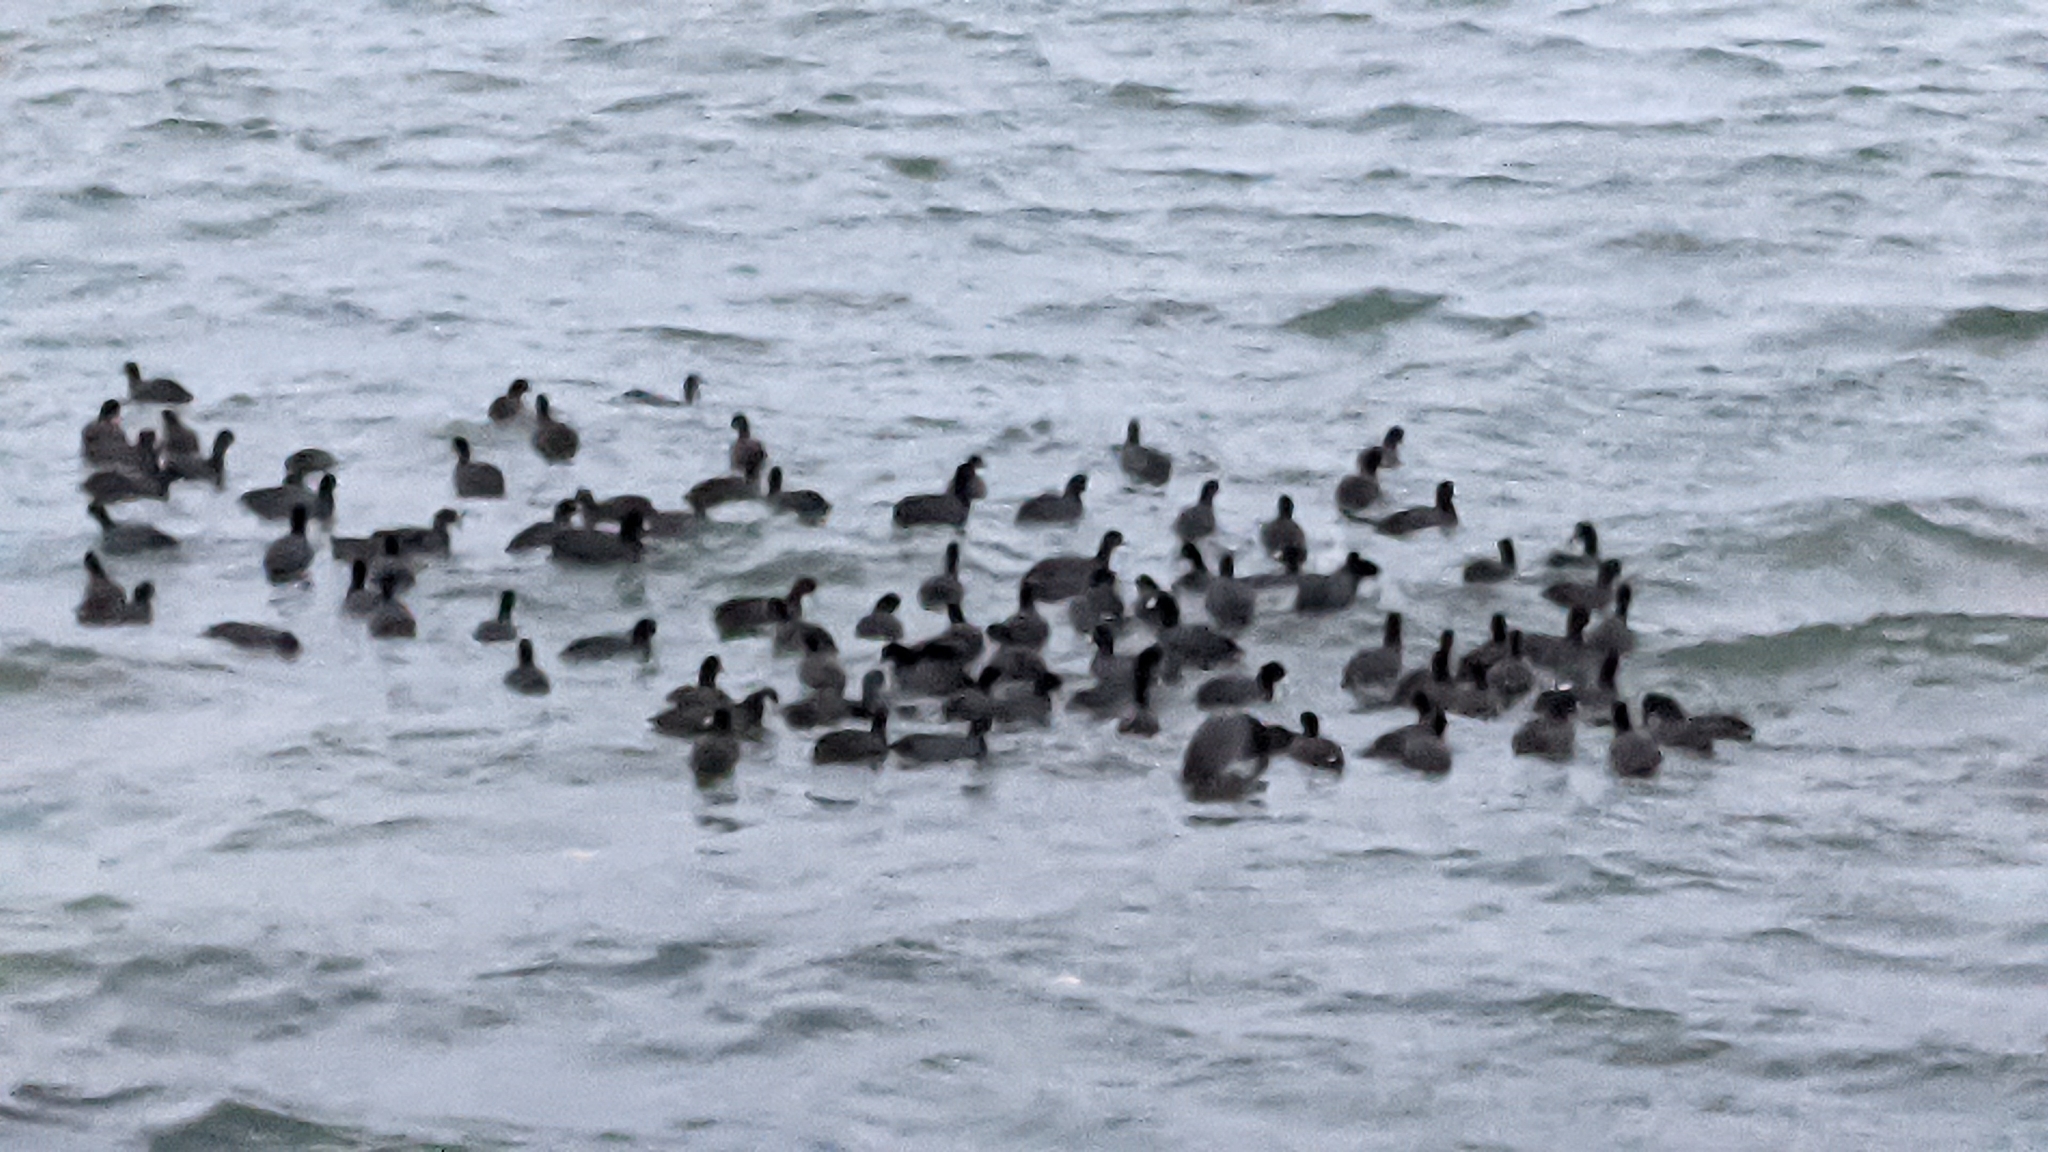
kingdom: Animalia
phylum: Chordata
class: Aves
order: Gruiformes
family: Rallidae
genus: Fulica
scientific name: Fulica americana
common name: American coot
